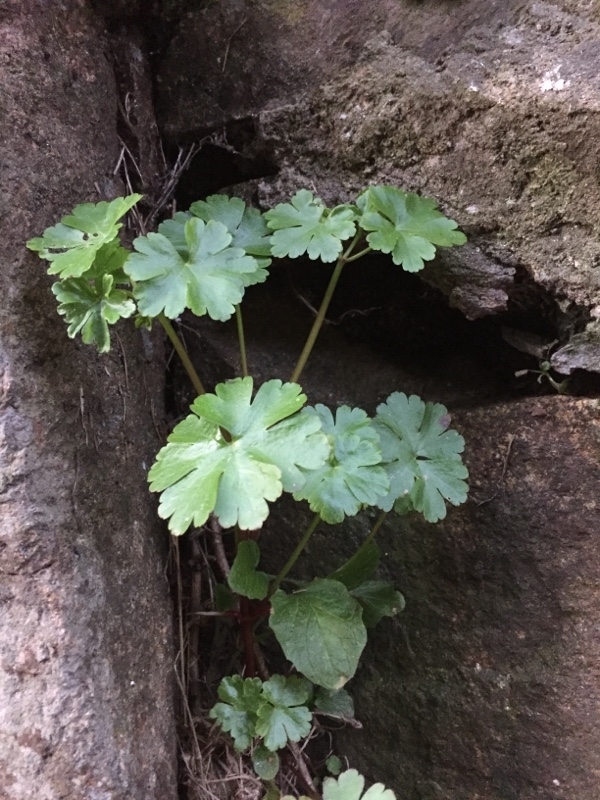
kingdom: Plantae
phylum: Tracheophyta
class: Magnoliopsida
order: Geraniales
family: Geraniaceae
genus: Geranium
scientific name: Geranium lucidum
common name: Shining crane's-bill
